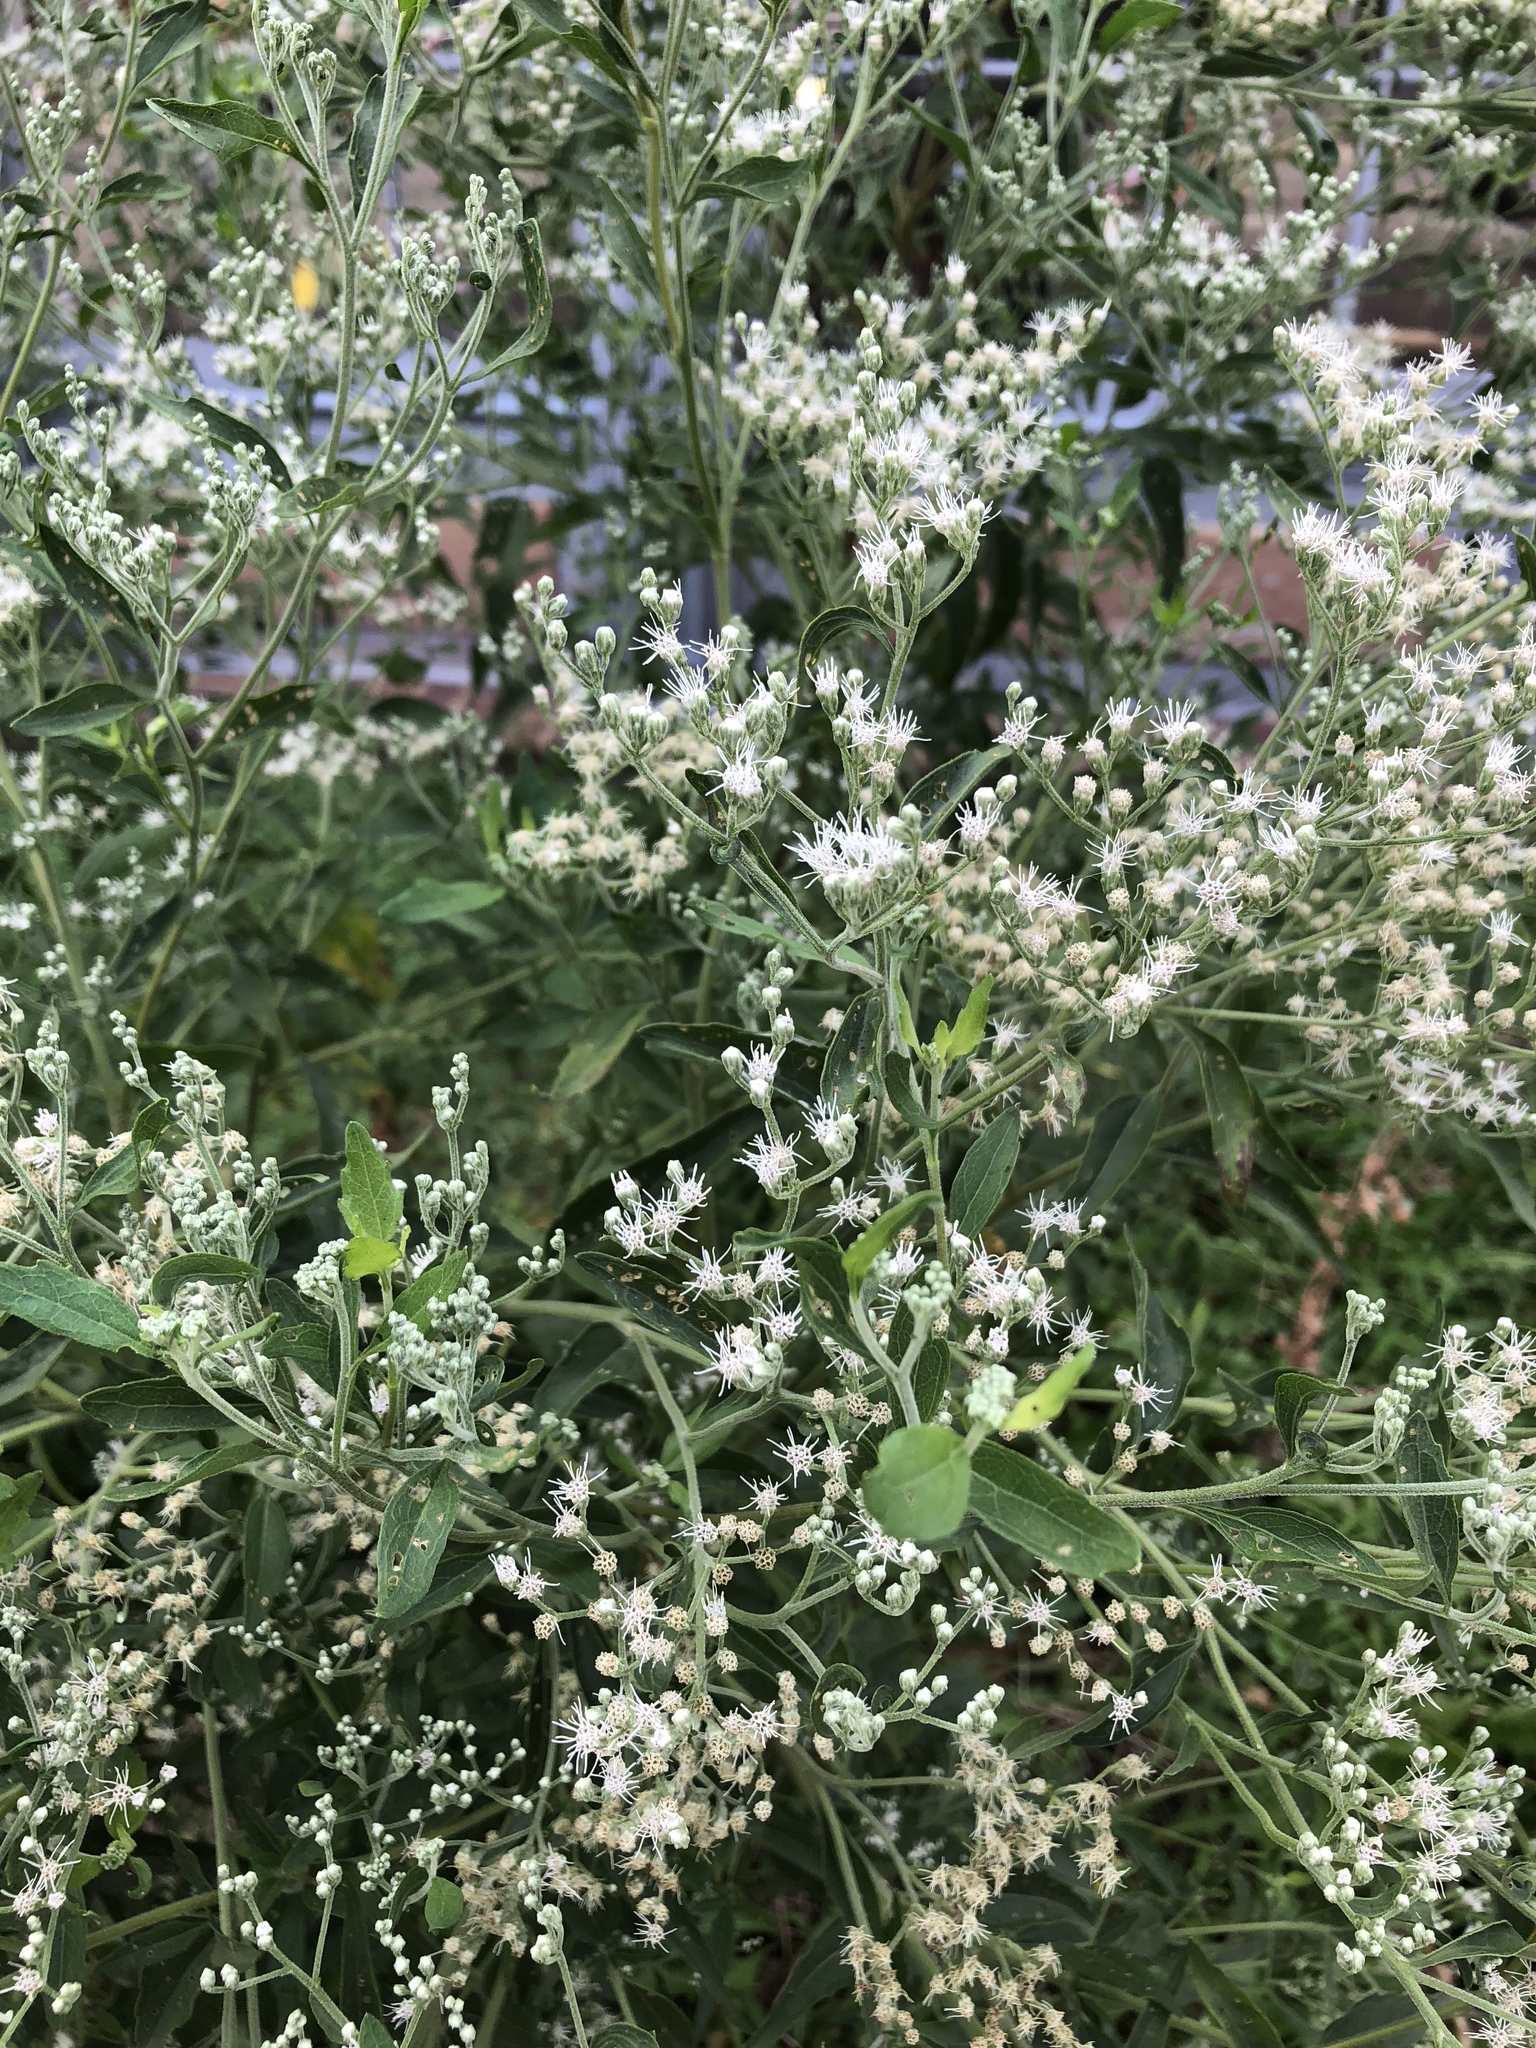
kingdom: Plantae
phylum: Tracheophyta
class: Magnoliopsida
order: Asterales
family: Asteraceae
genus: Eupatorium
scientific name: Eupatorium serotinum
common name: Late boneset
